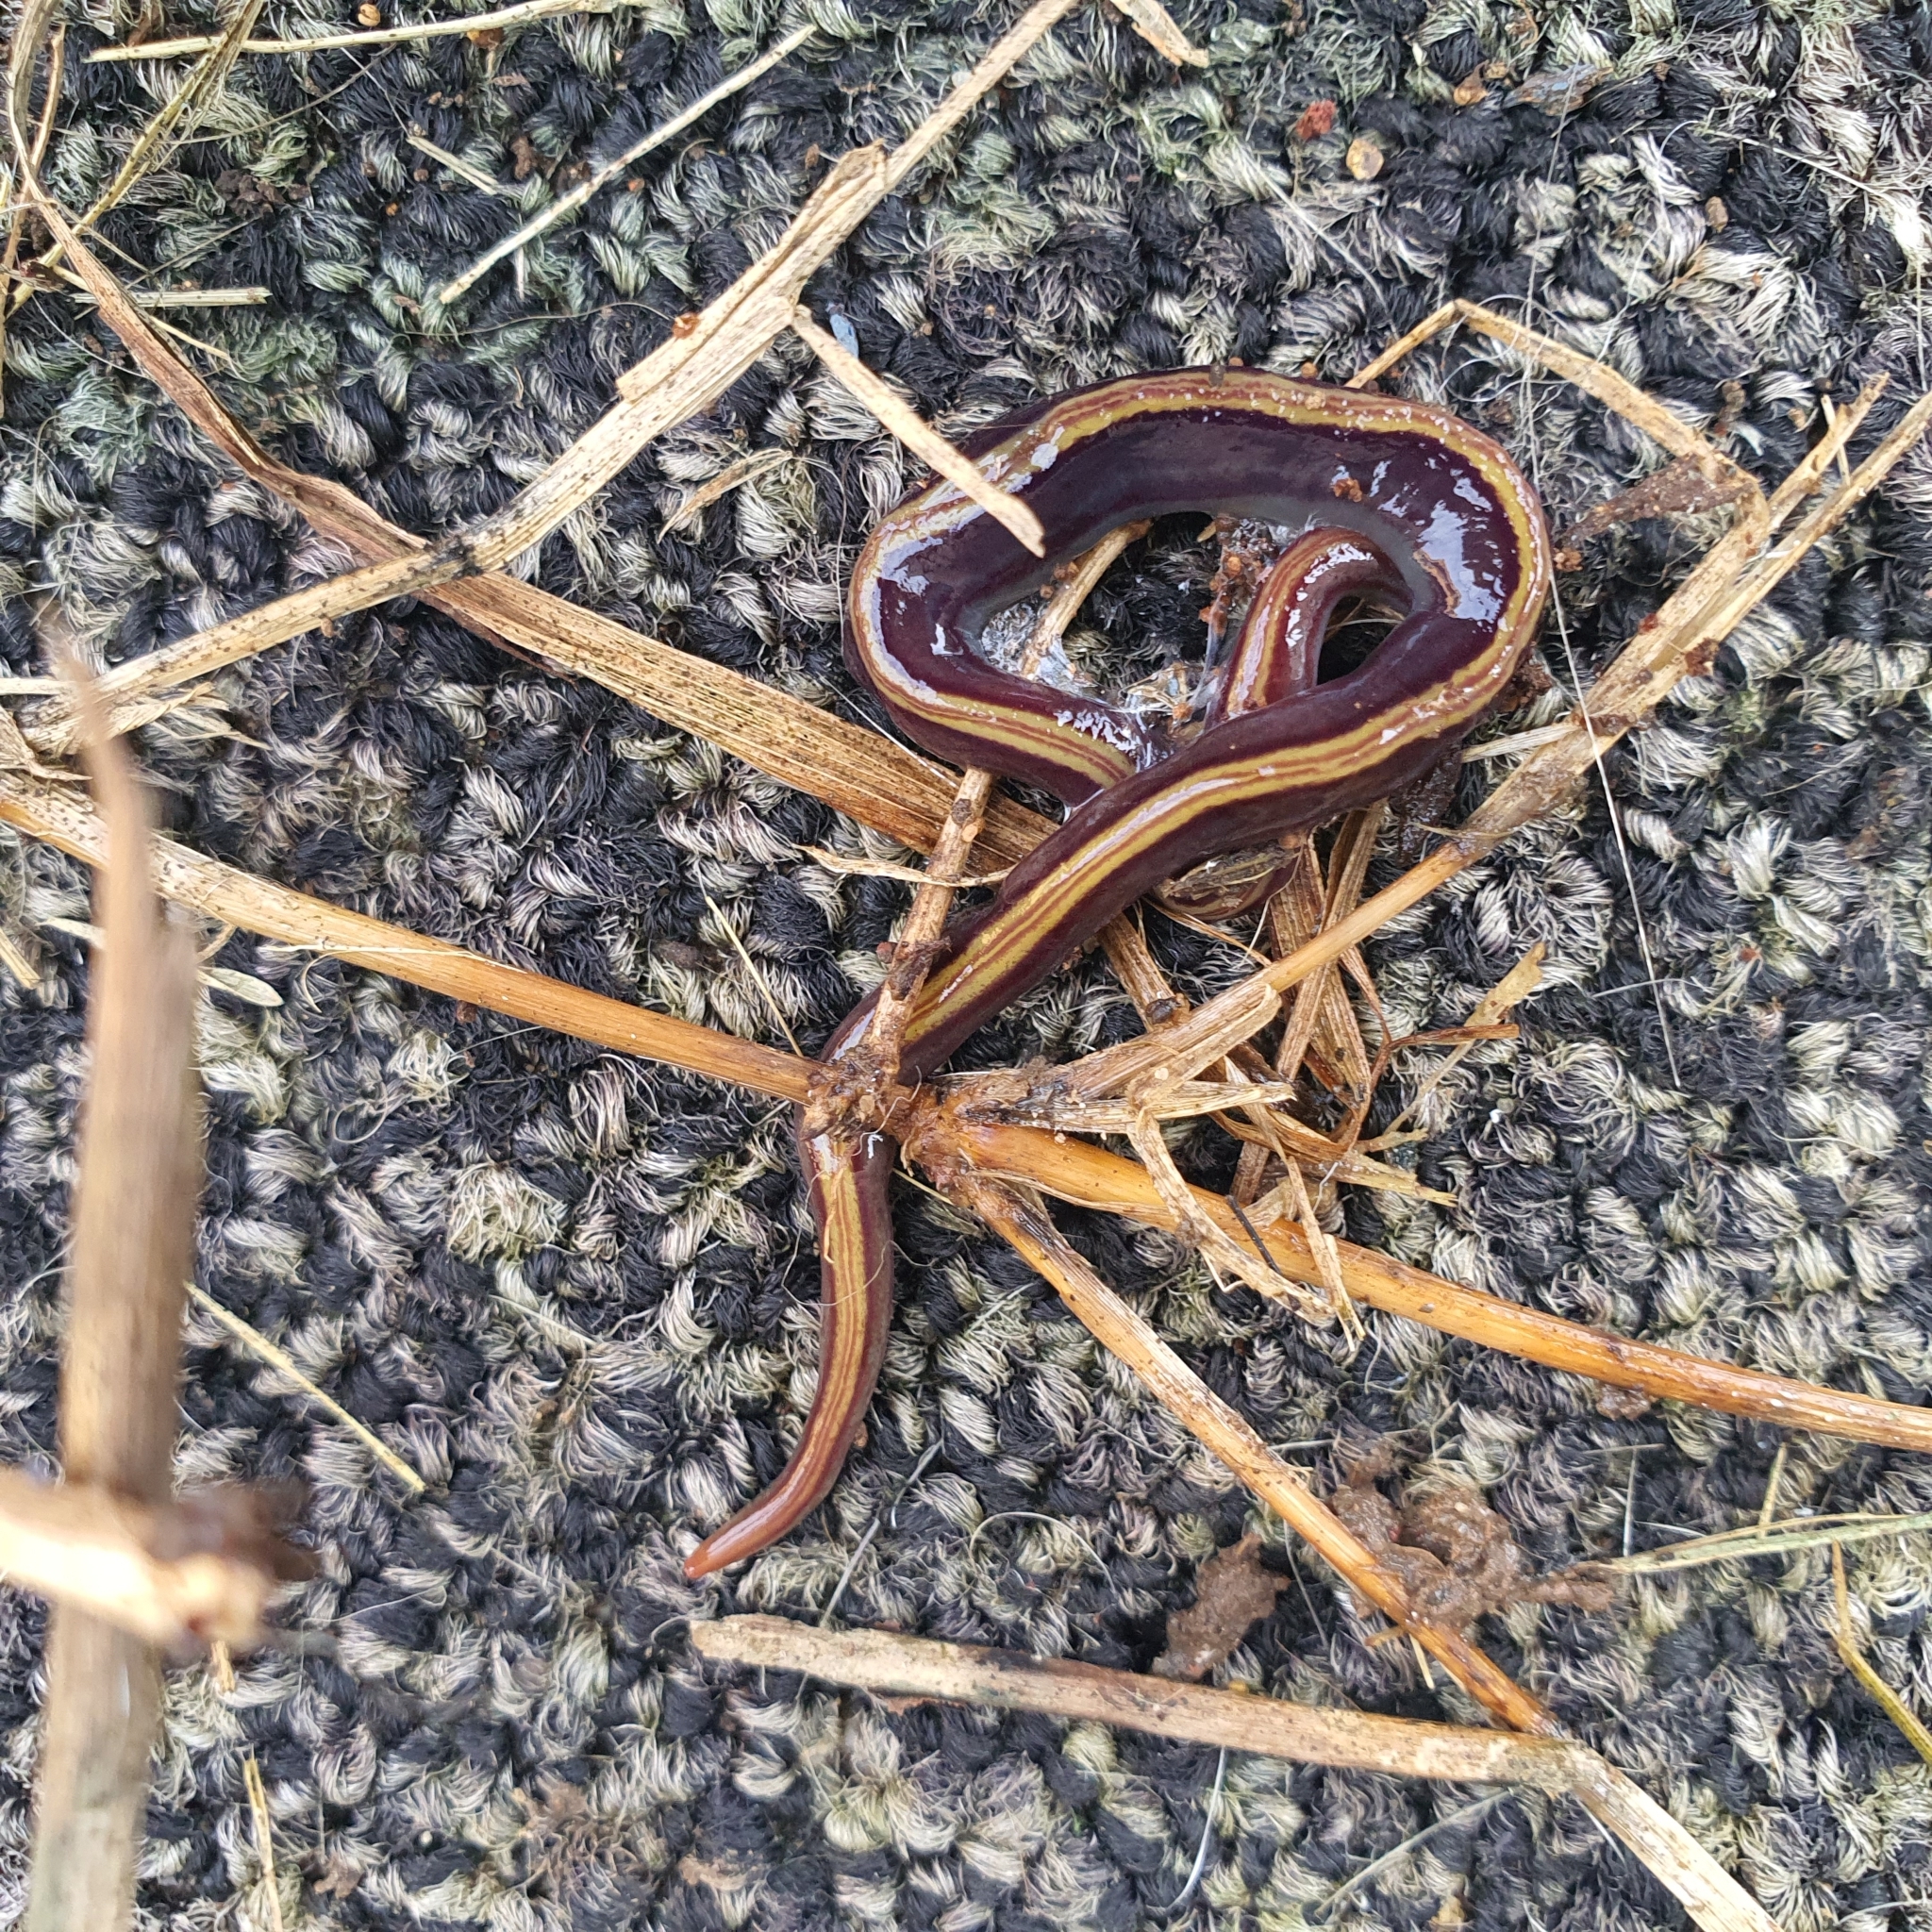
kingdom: Animalia
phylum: Platyhelminthes
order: Tricladida
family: Geoplanidae
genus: Caenoplana
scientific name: Caenoplana variegata
